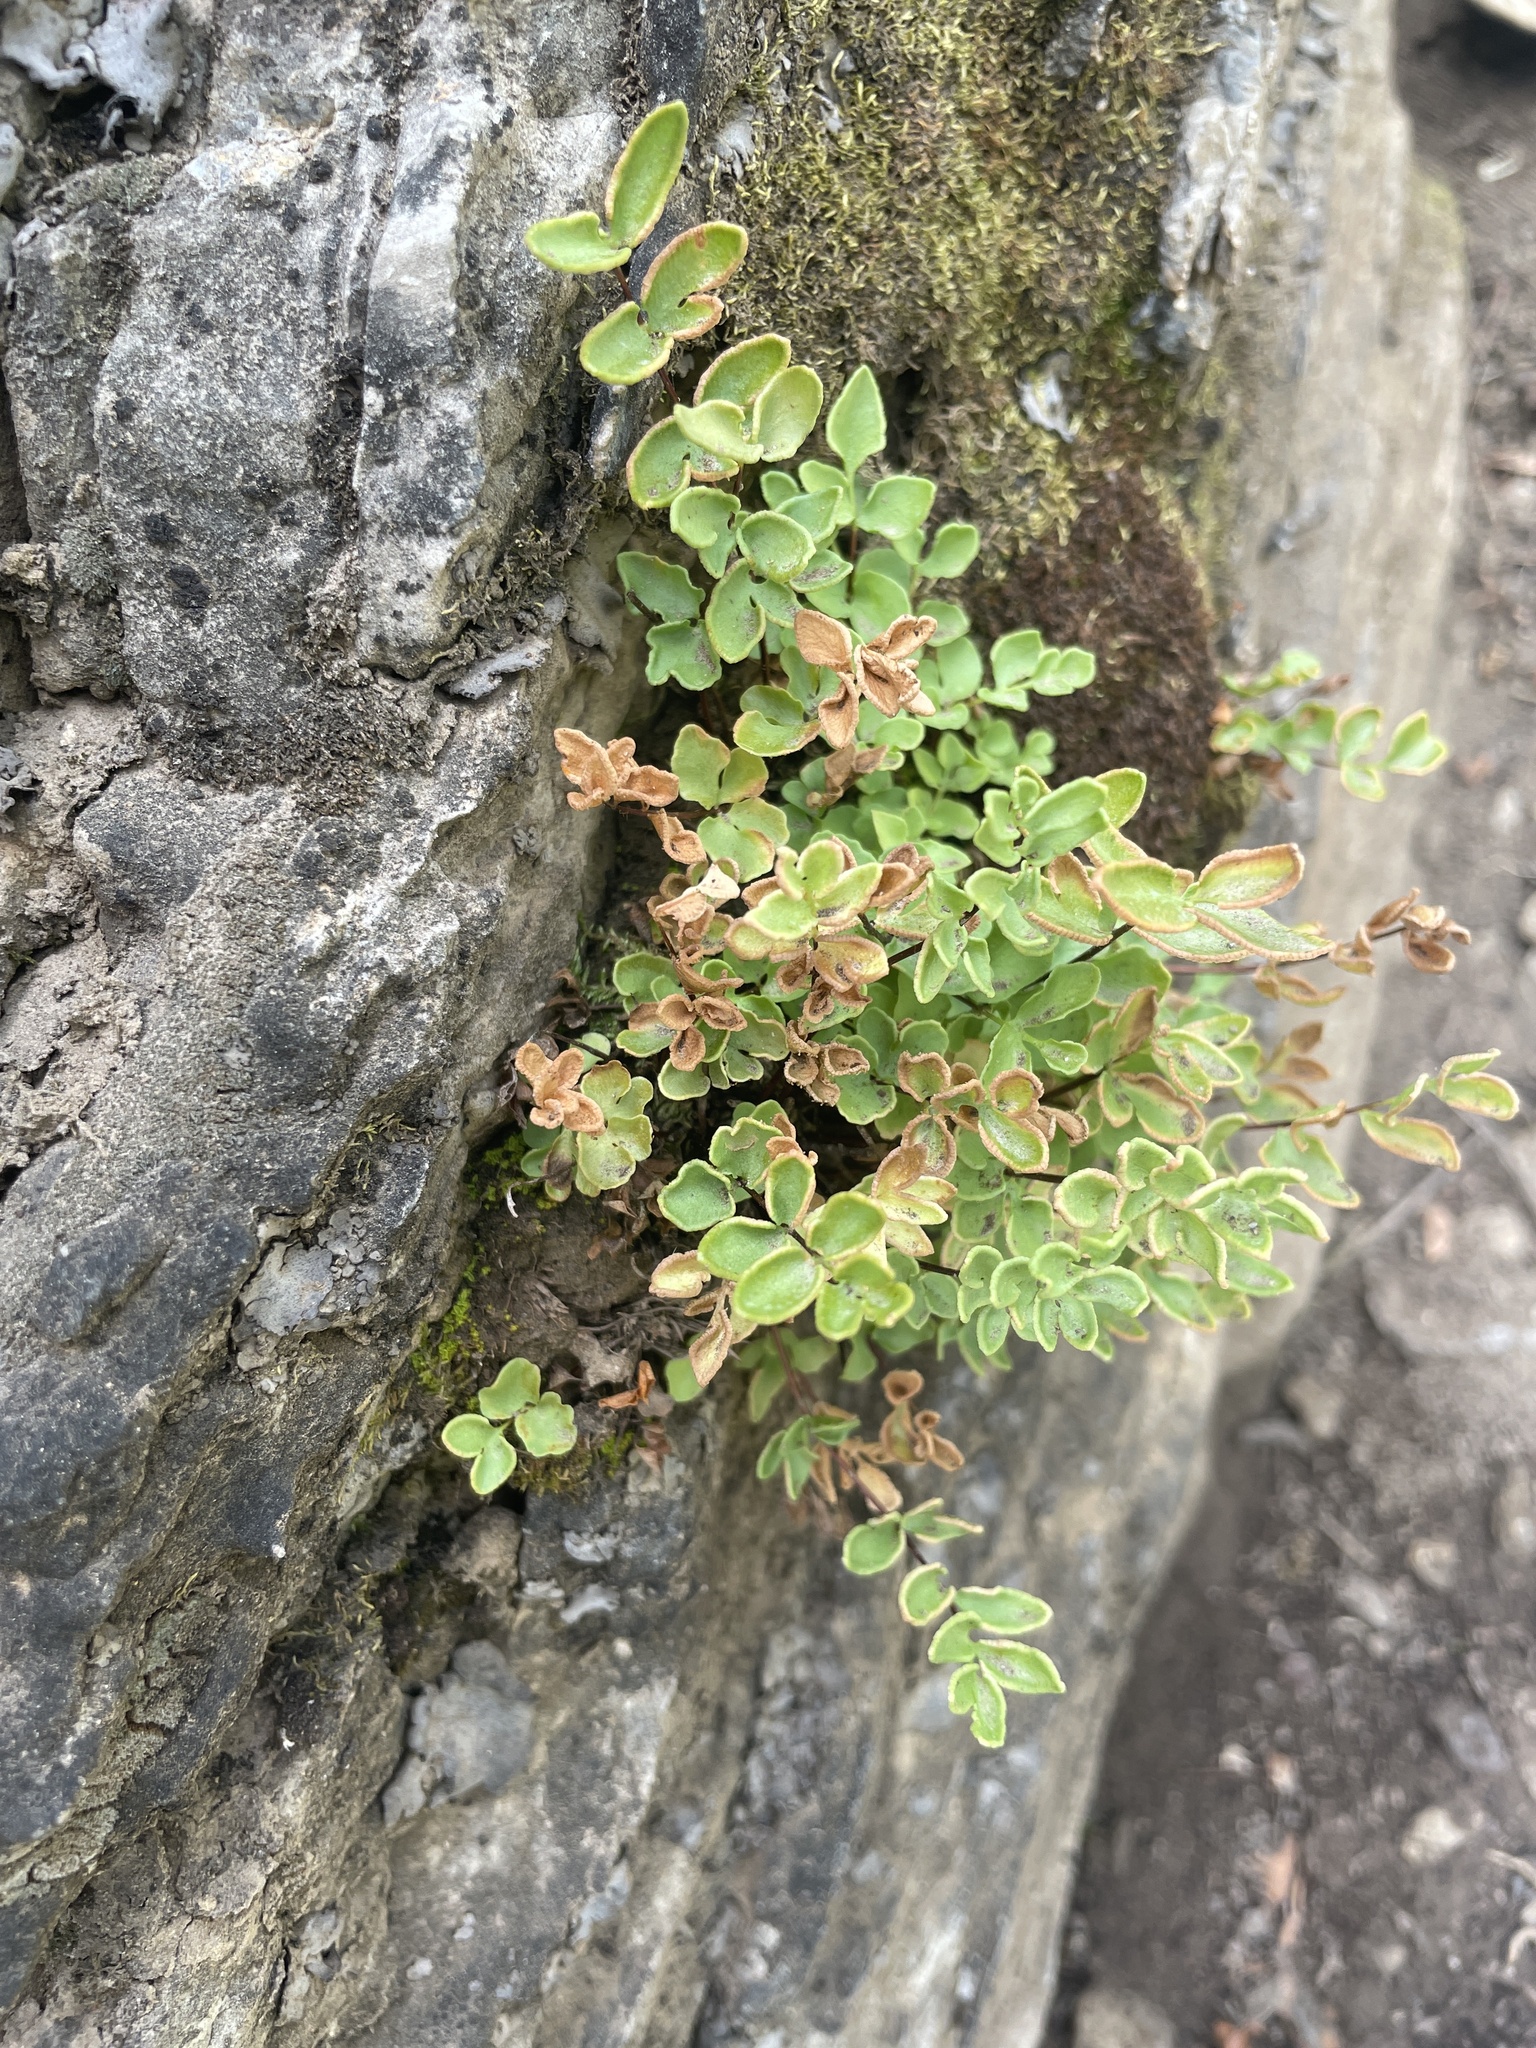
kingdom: Plantae
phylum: Tracheophyta
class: Polypodiopsida
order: Polypodiales
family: Pteridaceae
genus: Pellaea
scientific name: Pellaea breweri
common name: Brewer's cliffbrake
